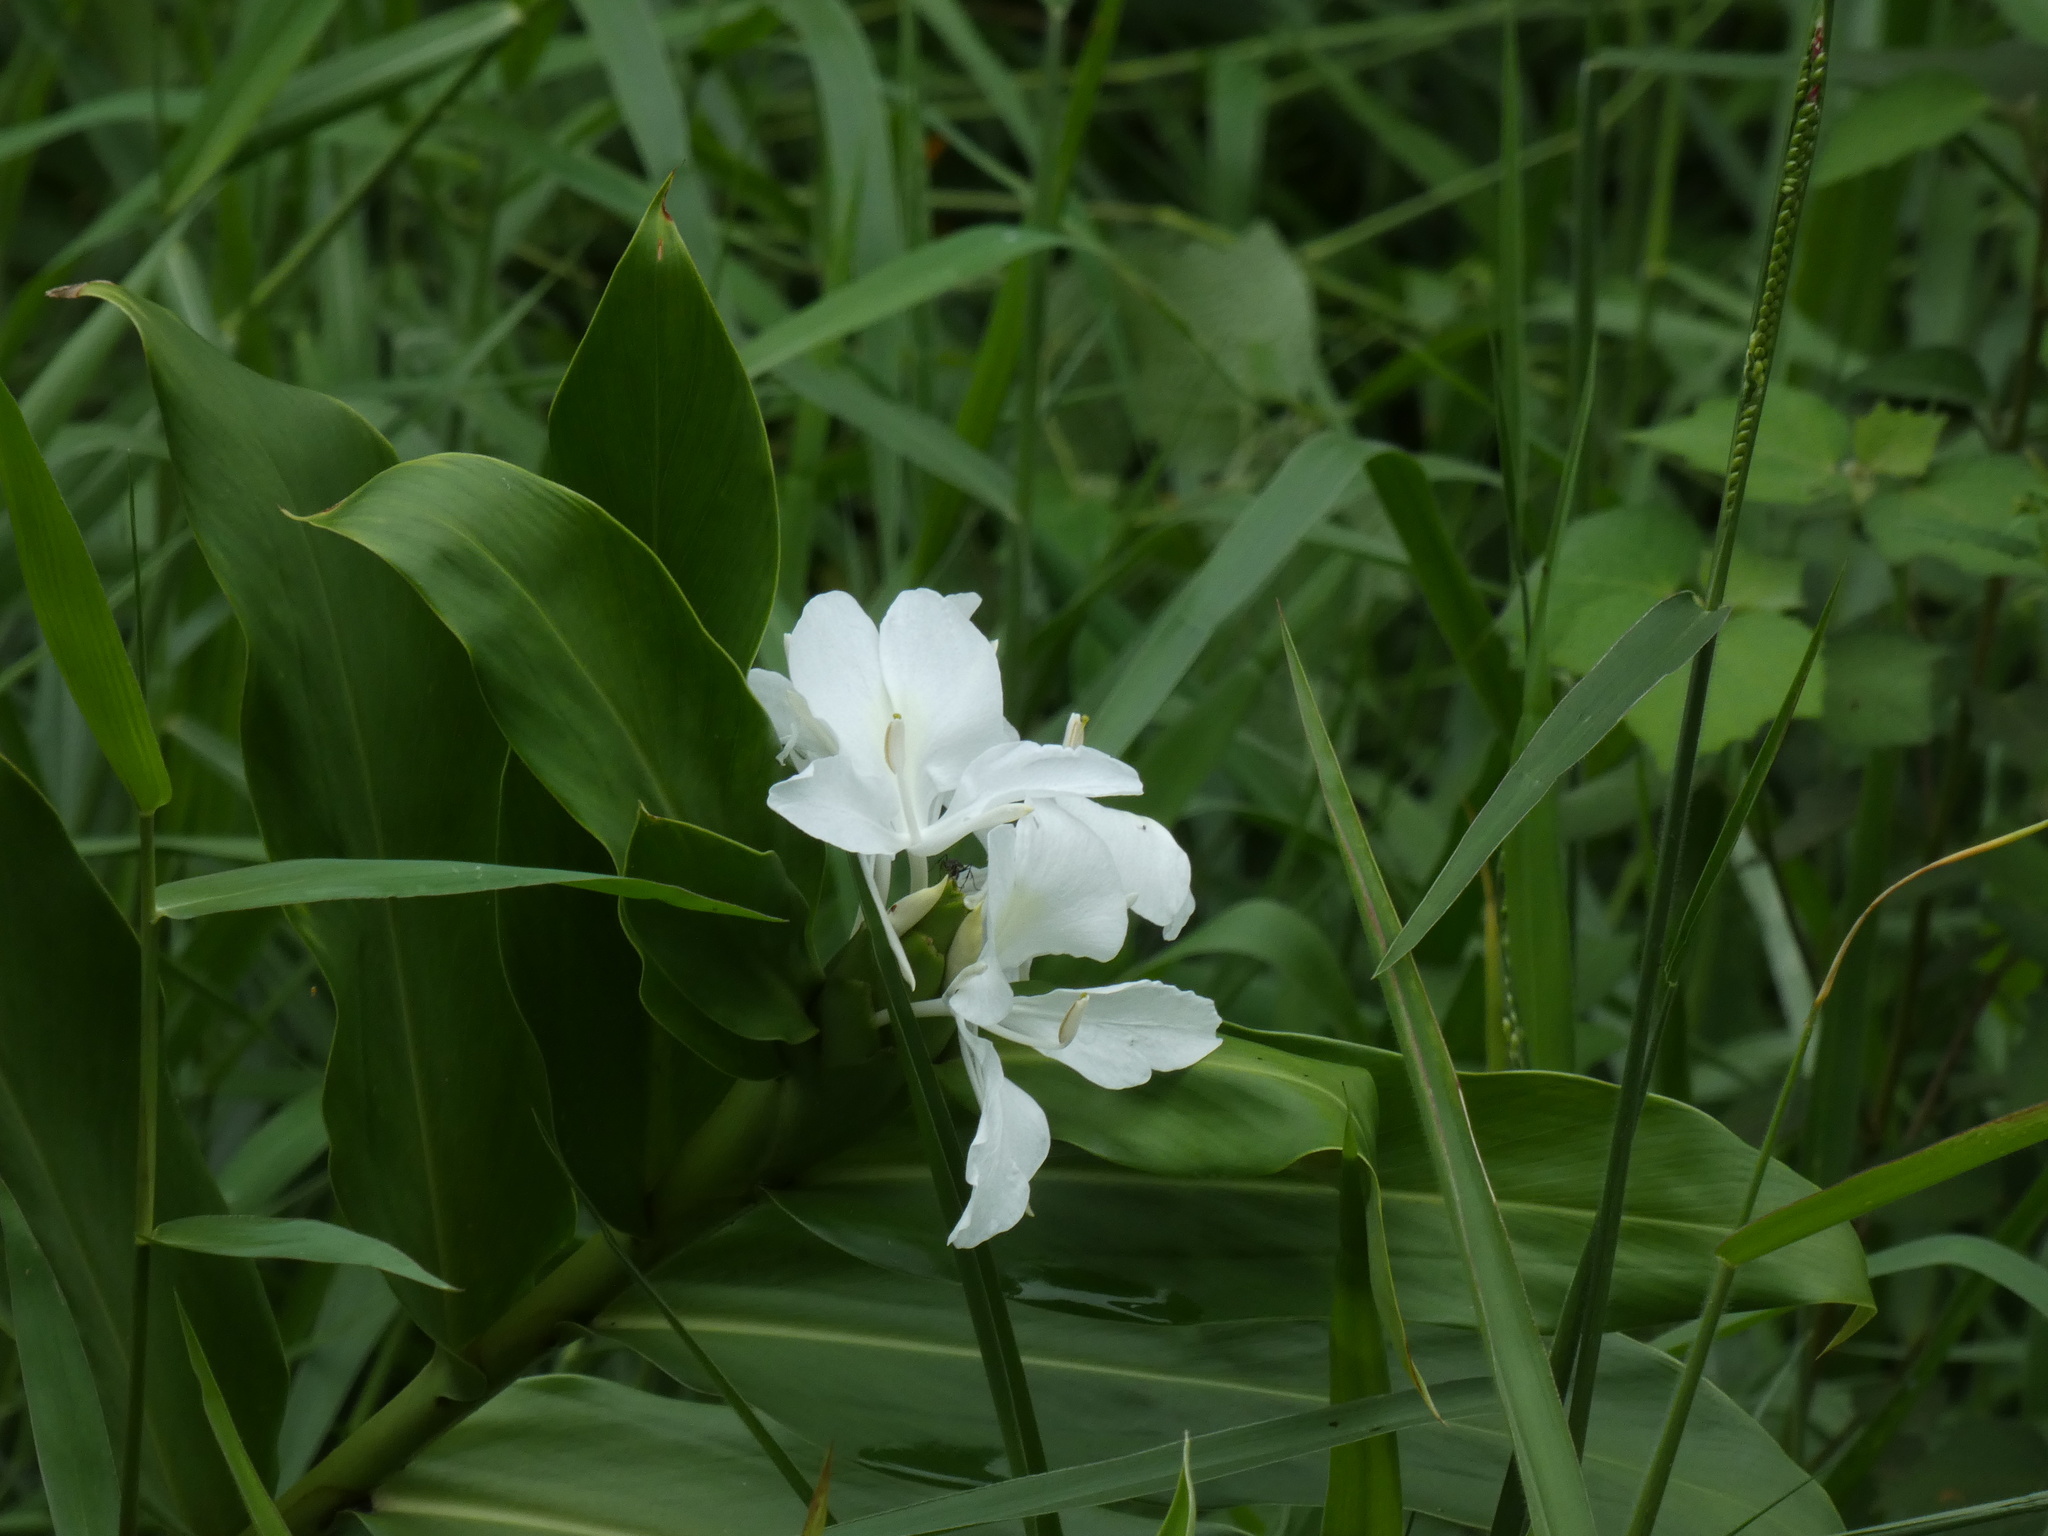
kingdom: Plantae
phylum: Tracheophyta
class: Liliopsida
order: Zingiberales
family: Zingiberaceae
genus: Hedychium
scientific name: Hedychium coronarium
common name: White garland-lily
